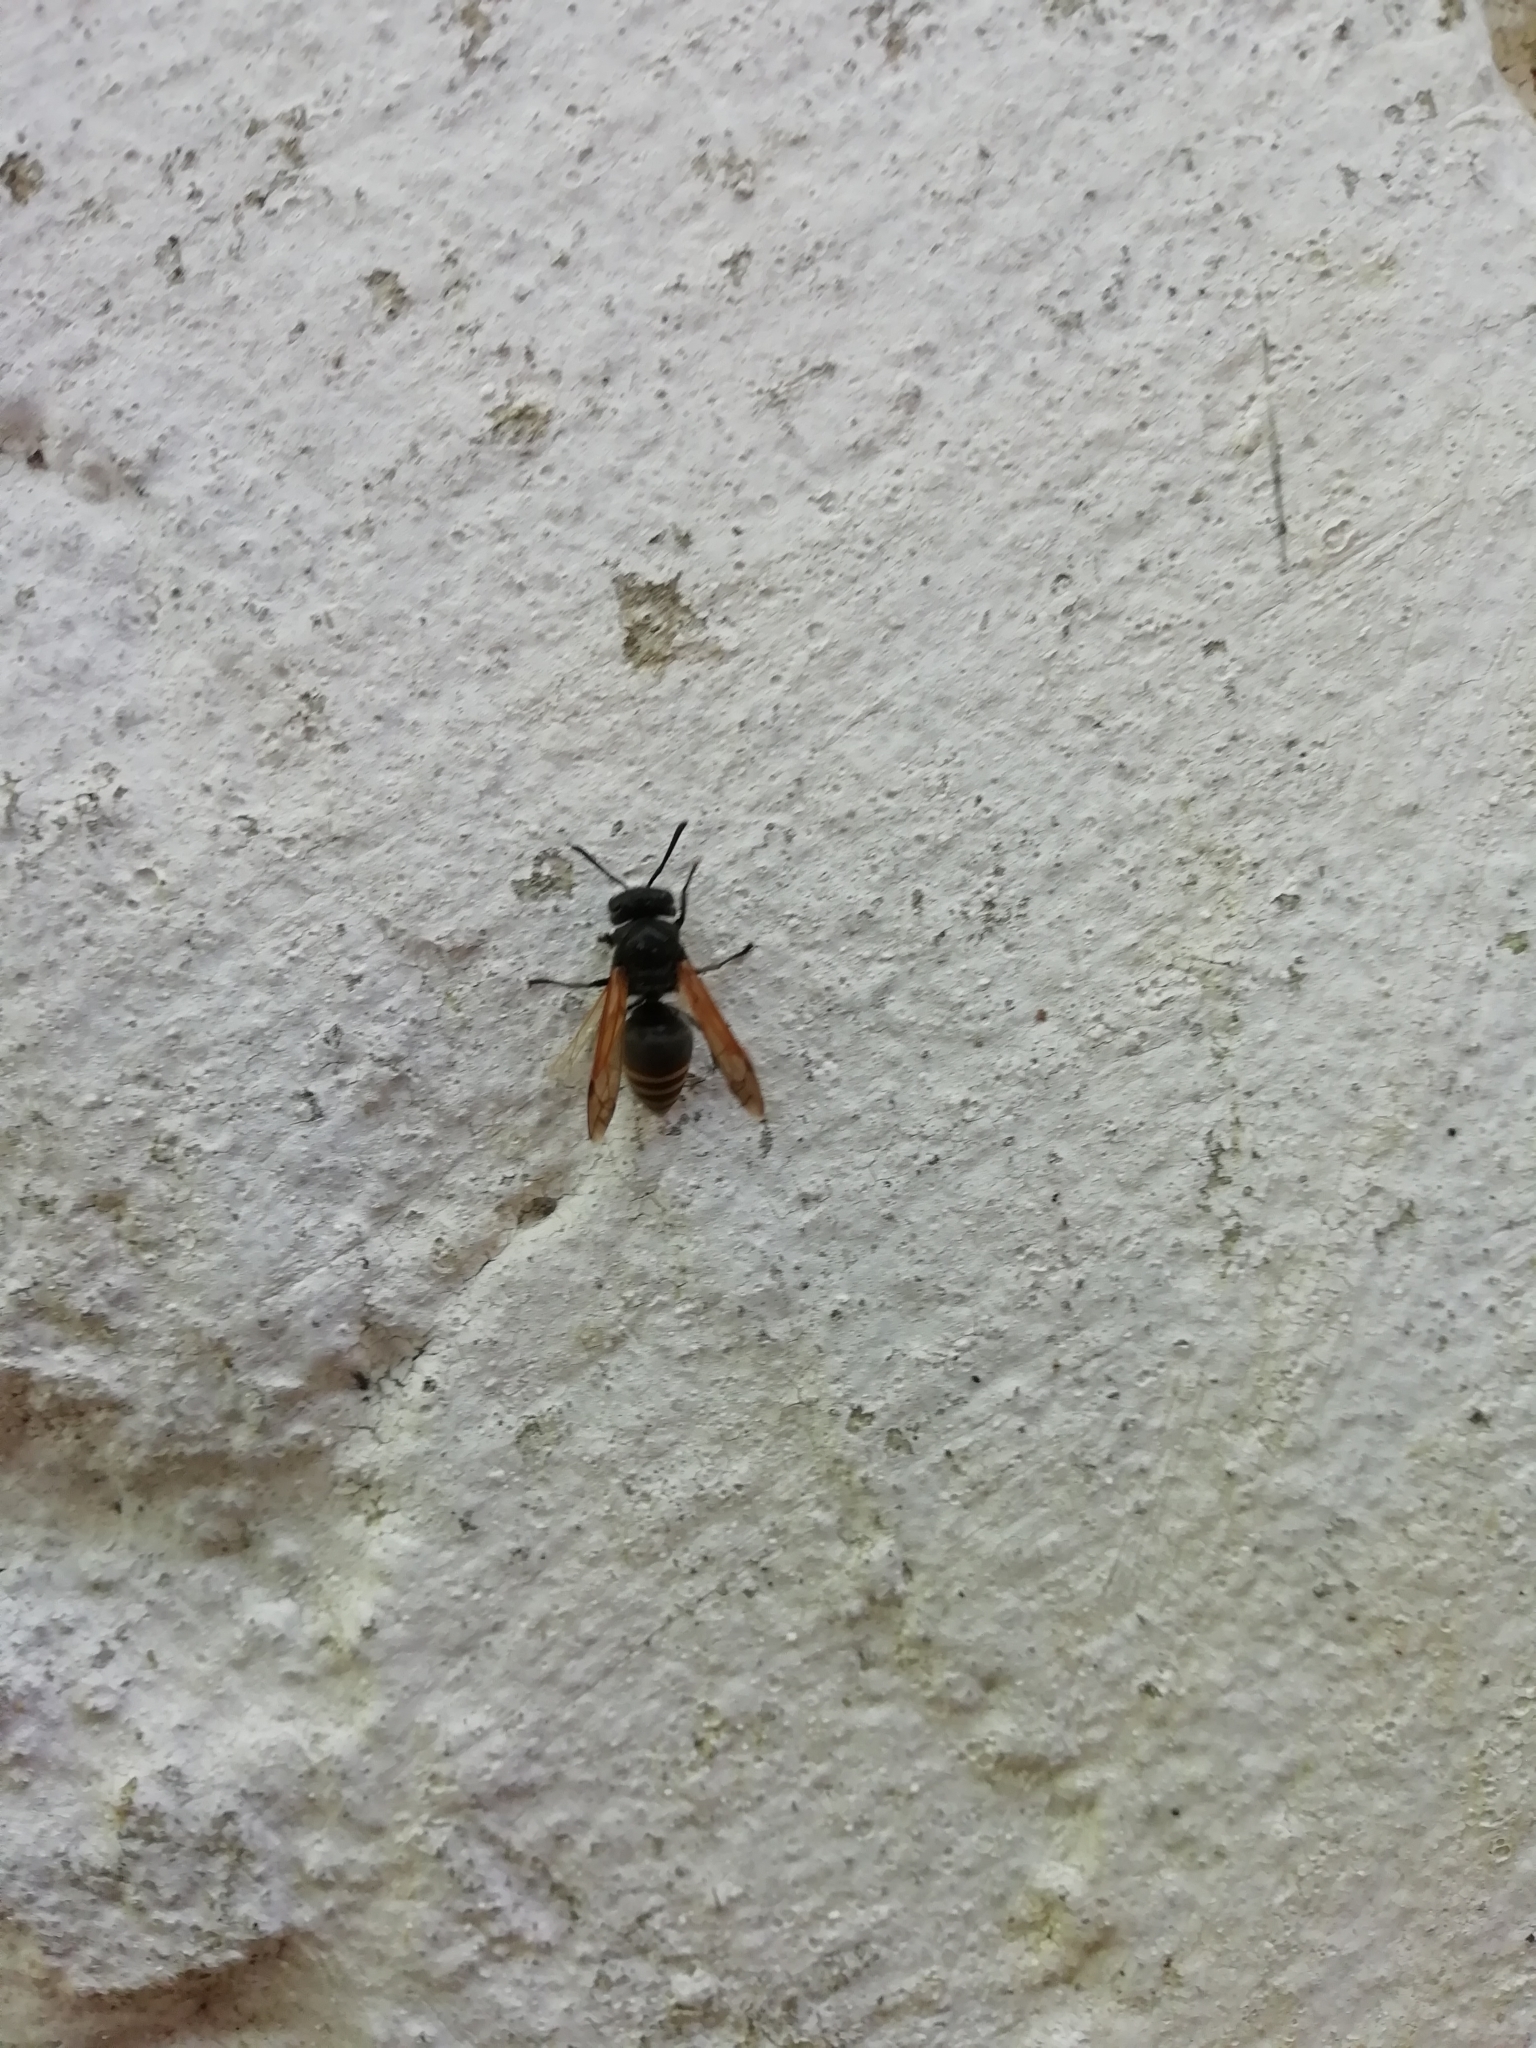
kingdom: Animalia
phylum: Arthropoda
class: Insecta
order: Hymenoptera
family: Vespidae
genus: Brachygastra
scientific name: Brachygastra lecheguana
